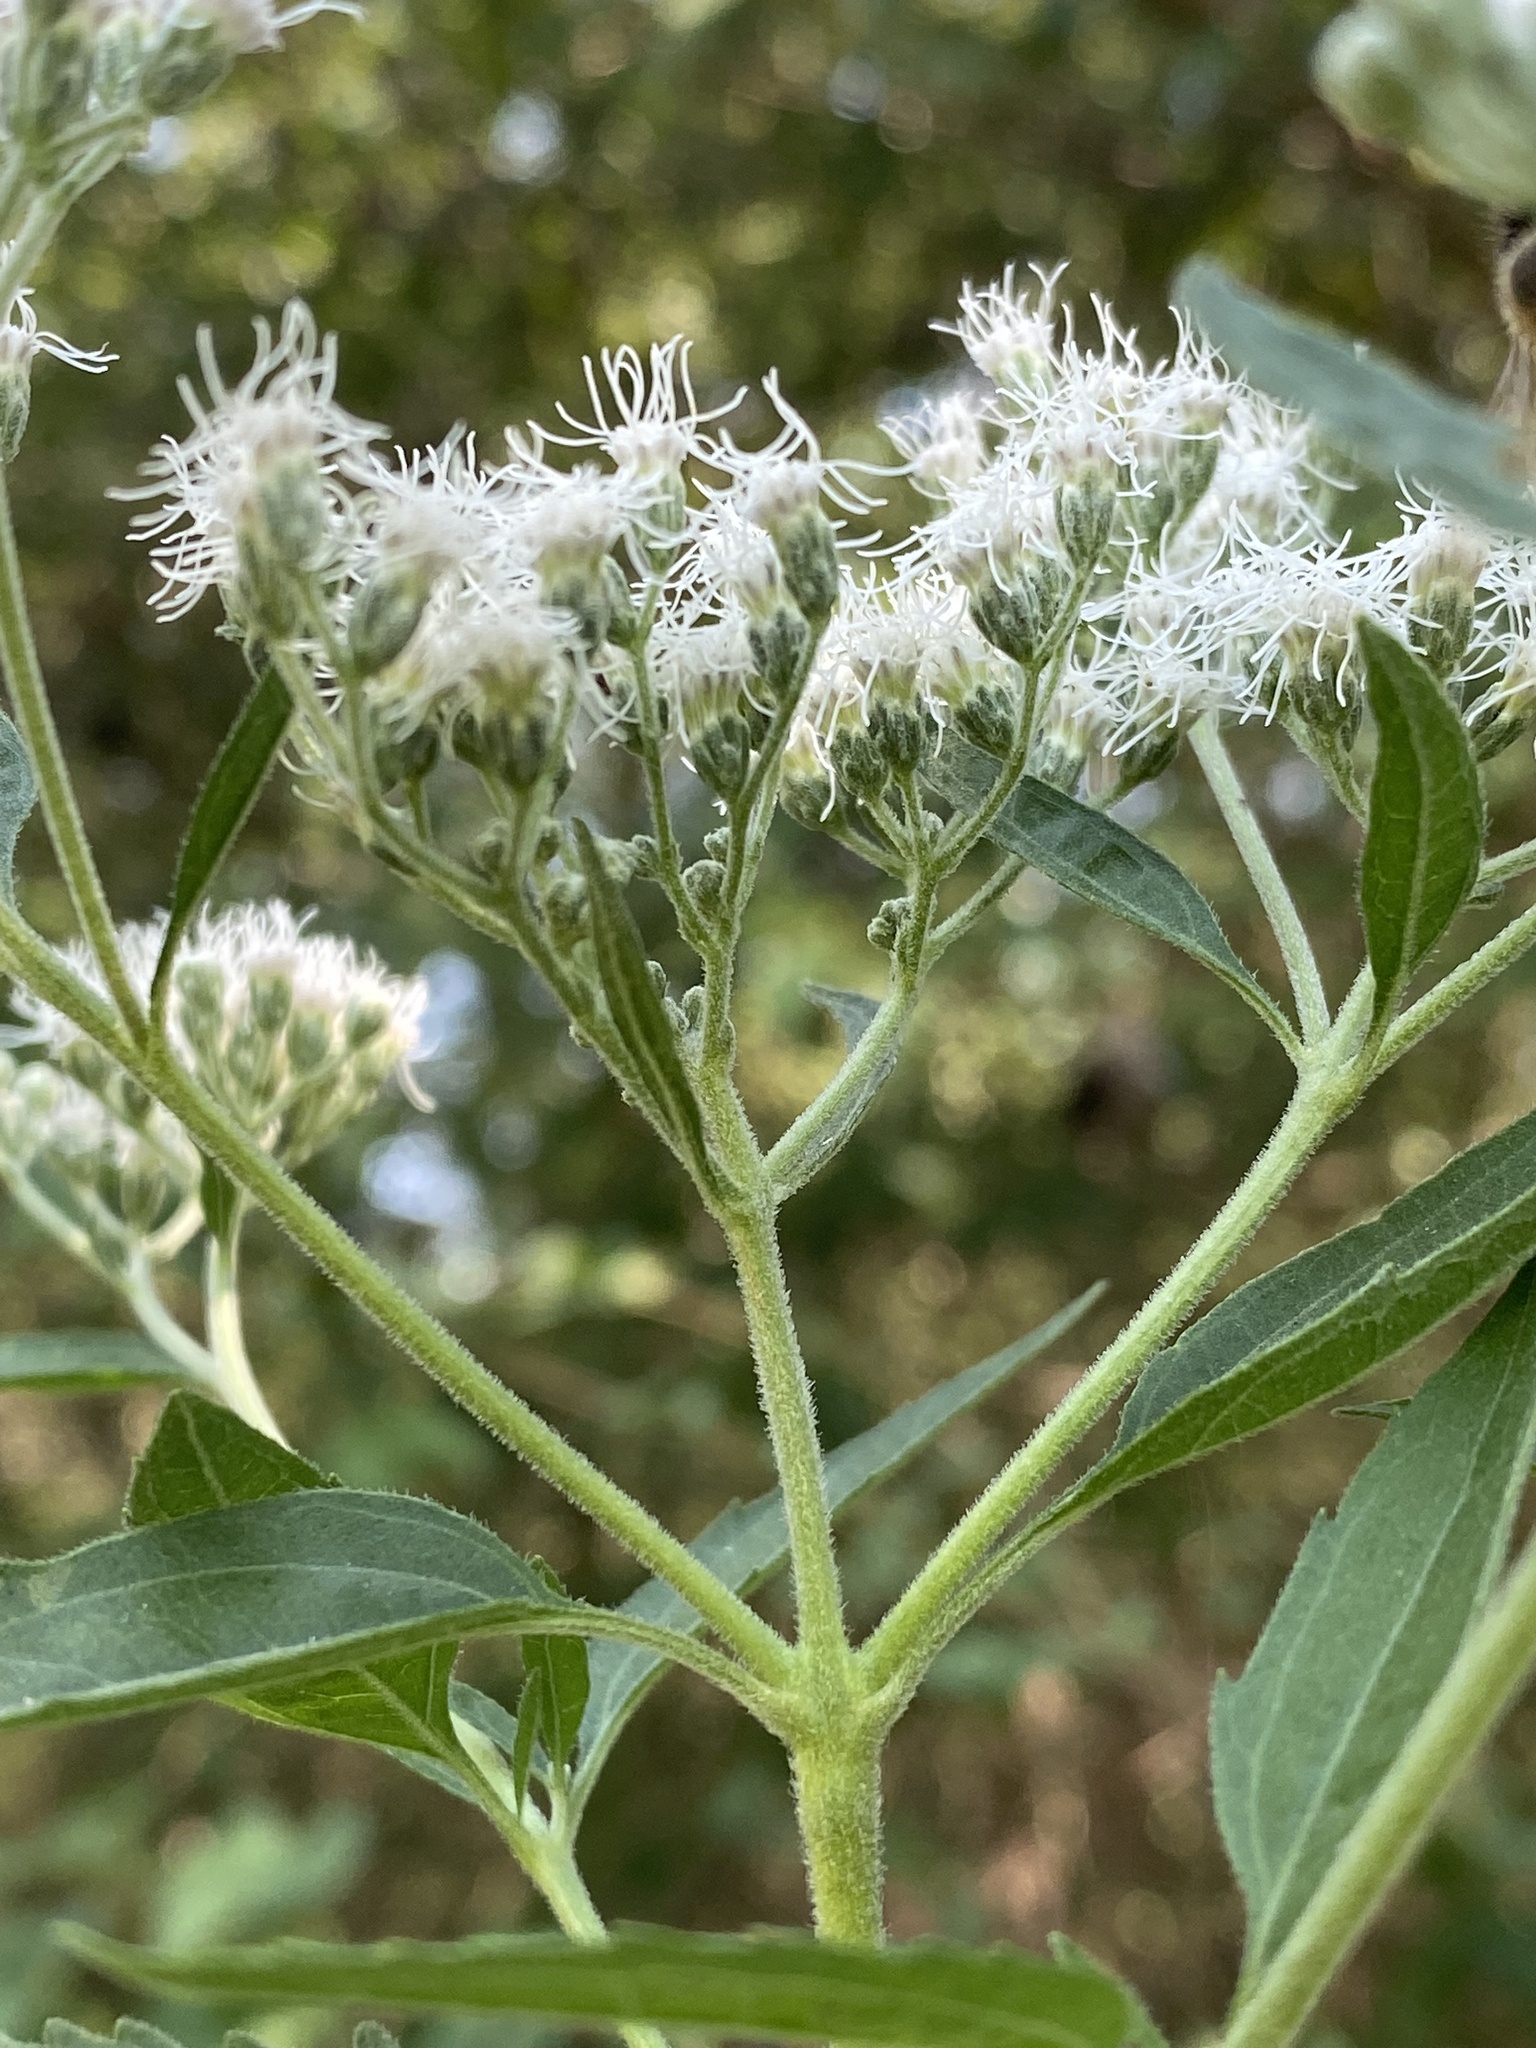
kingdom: Plantae
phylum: Tracheophyta
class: Magnoliopsida
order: Asterales
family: Asteraceae
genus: Eupatorium
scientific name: Eupatorium serotinum
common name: Late boneset
